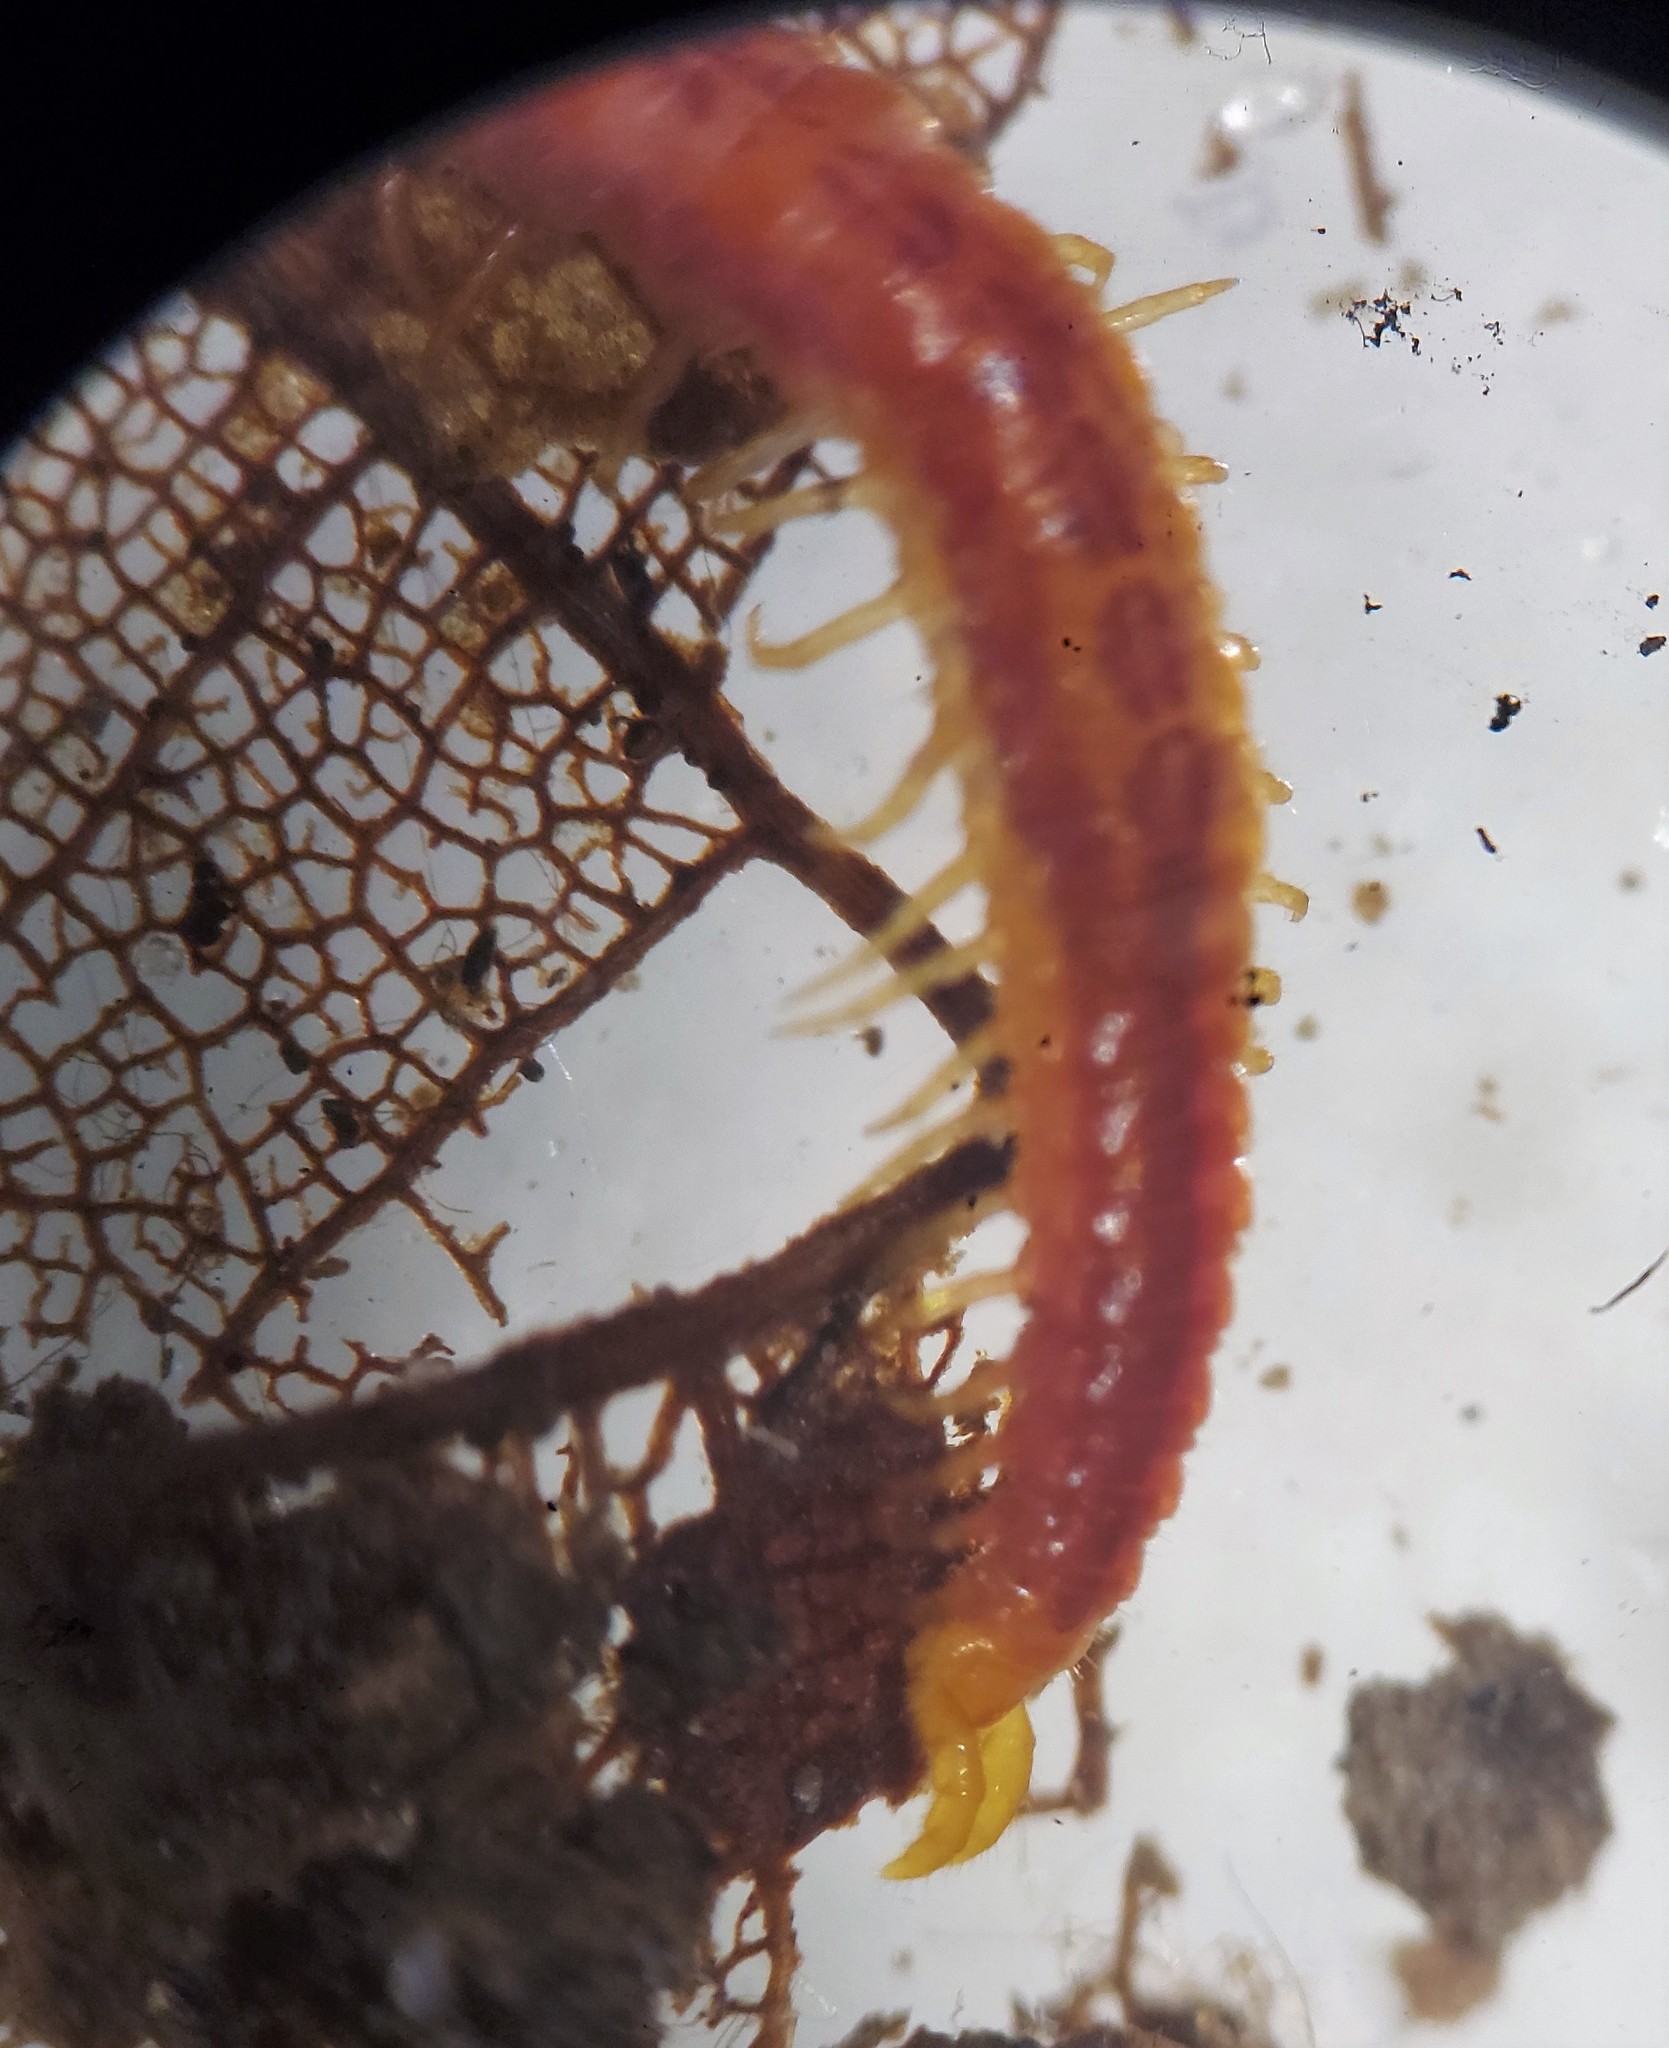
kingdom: Animalia
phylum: Arthropoda
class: Chilopoda
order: Geophilomorpha
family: Linotaeniidae
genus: Strigamia
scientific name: Strigamia branneri
